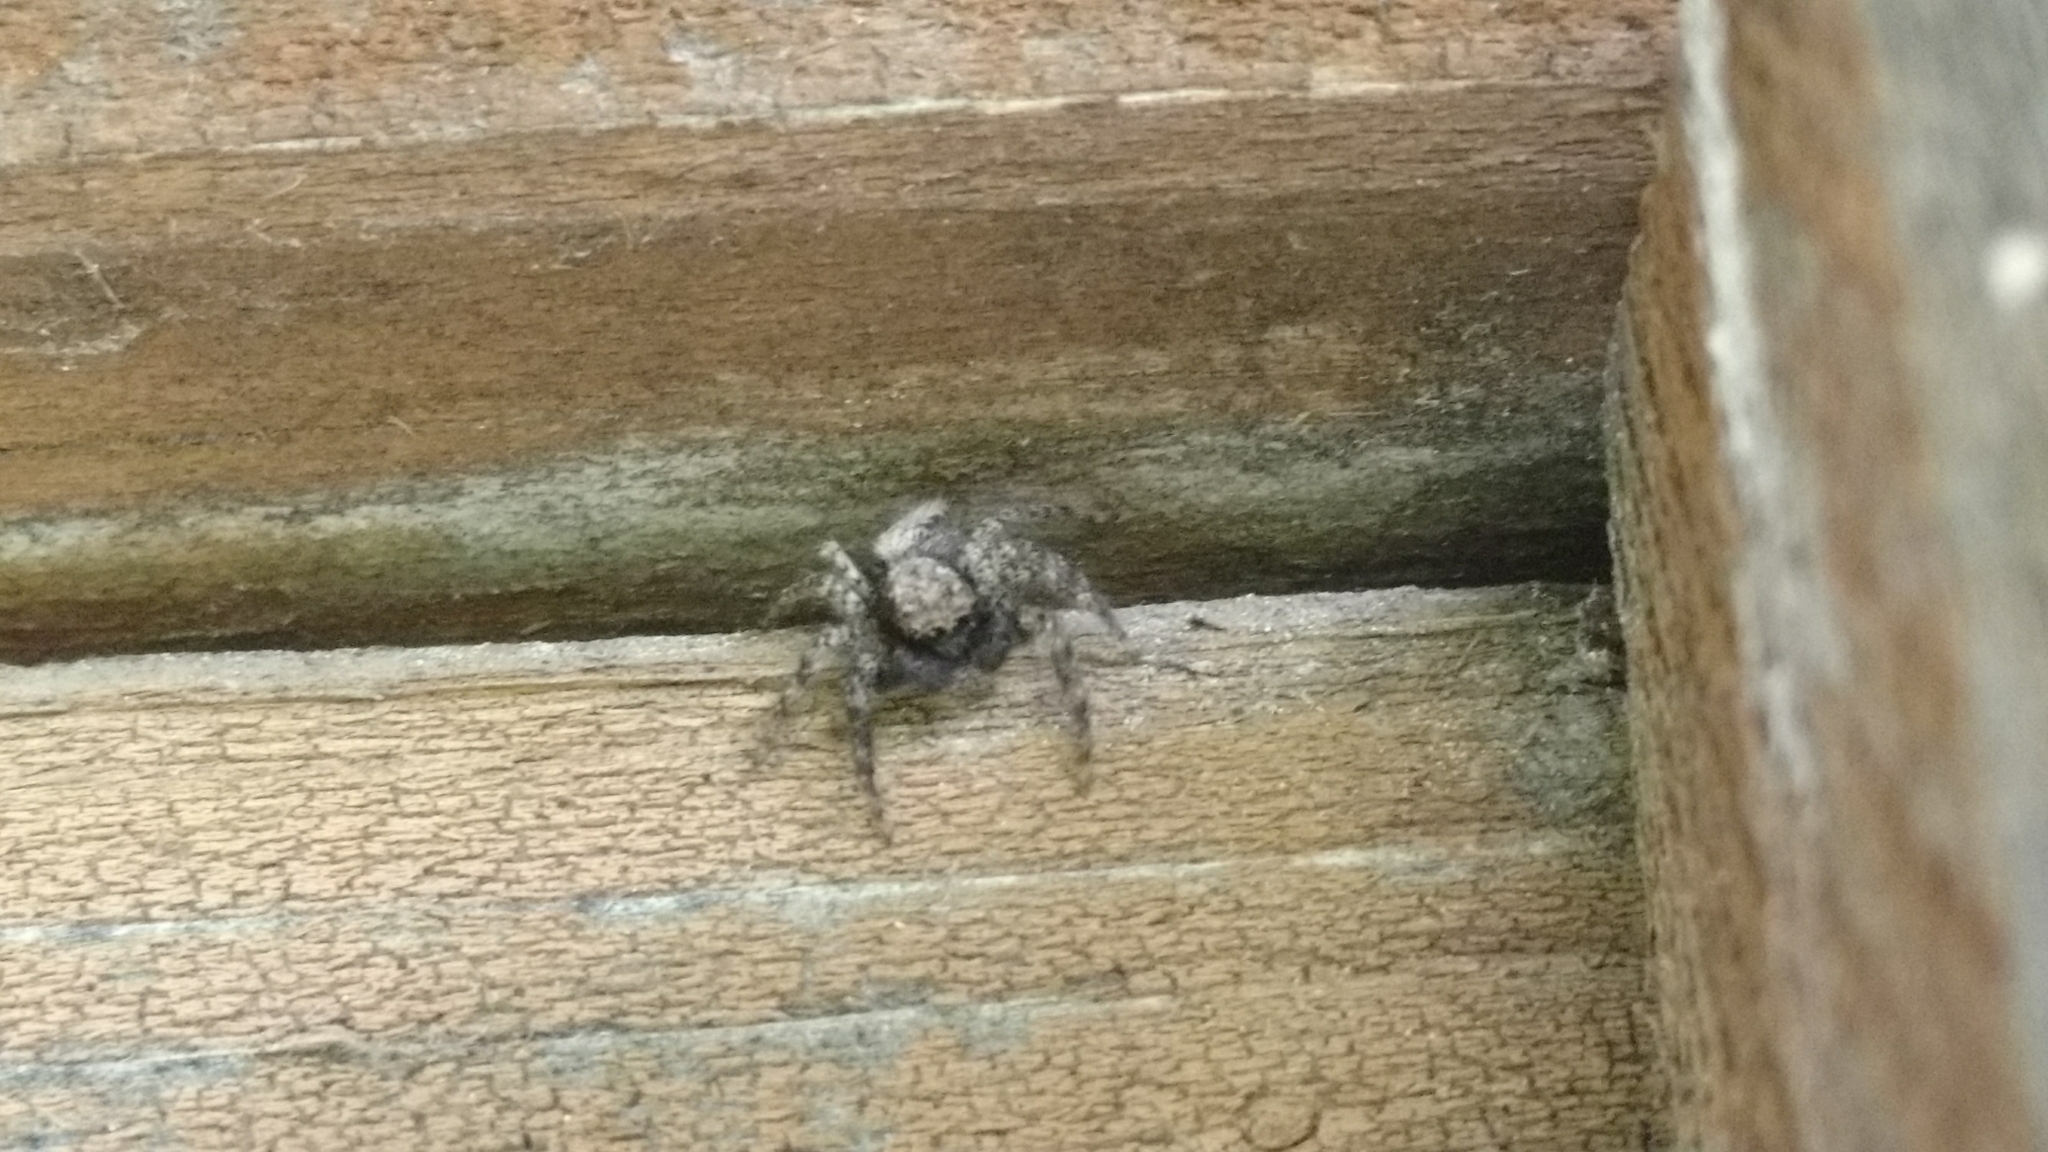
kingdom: Animalia
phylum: Arthropoda
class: Arachnida
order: Araneae
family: Salticidae
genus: Platycryptus
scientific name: Platycryptus californicus
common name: Jumping spiders
